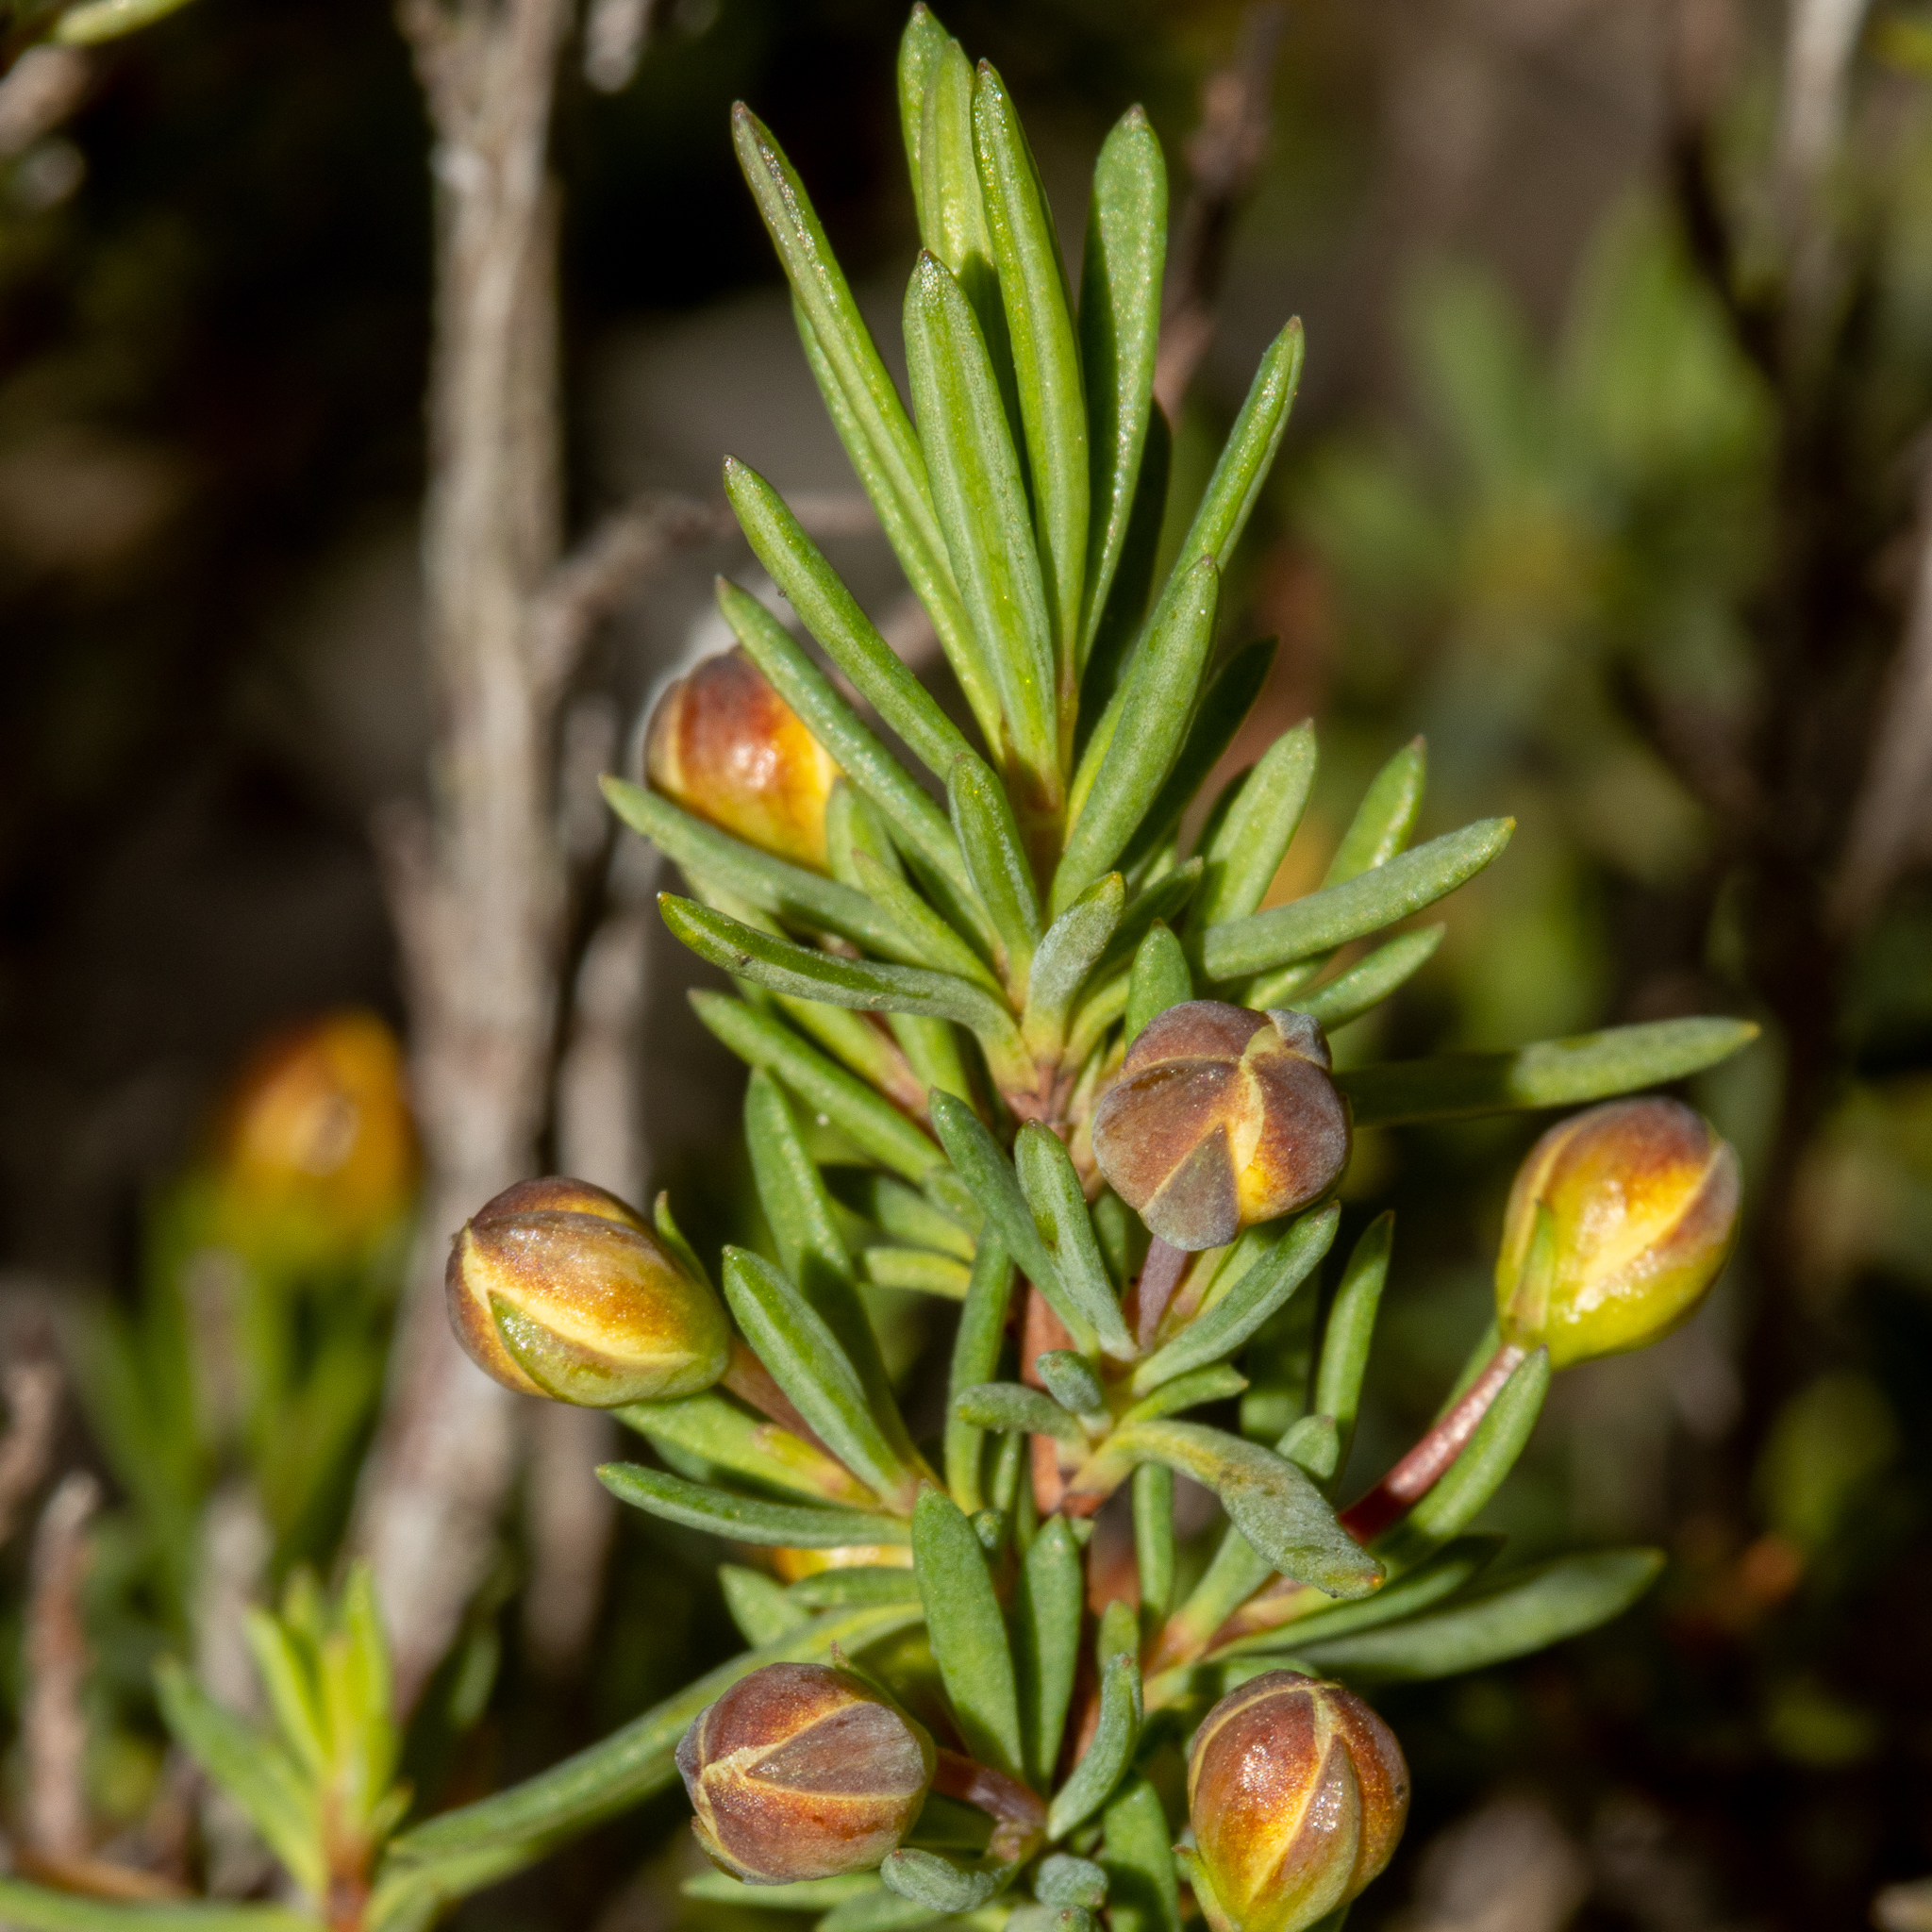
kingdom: Plantae
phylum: Tracheophyta
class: Magnoliopsida
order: Dilleniales
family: Dilleniaceae
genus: Hibbertia
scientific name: Hibbertia gracilipes
